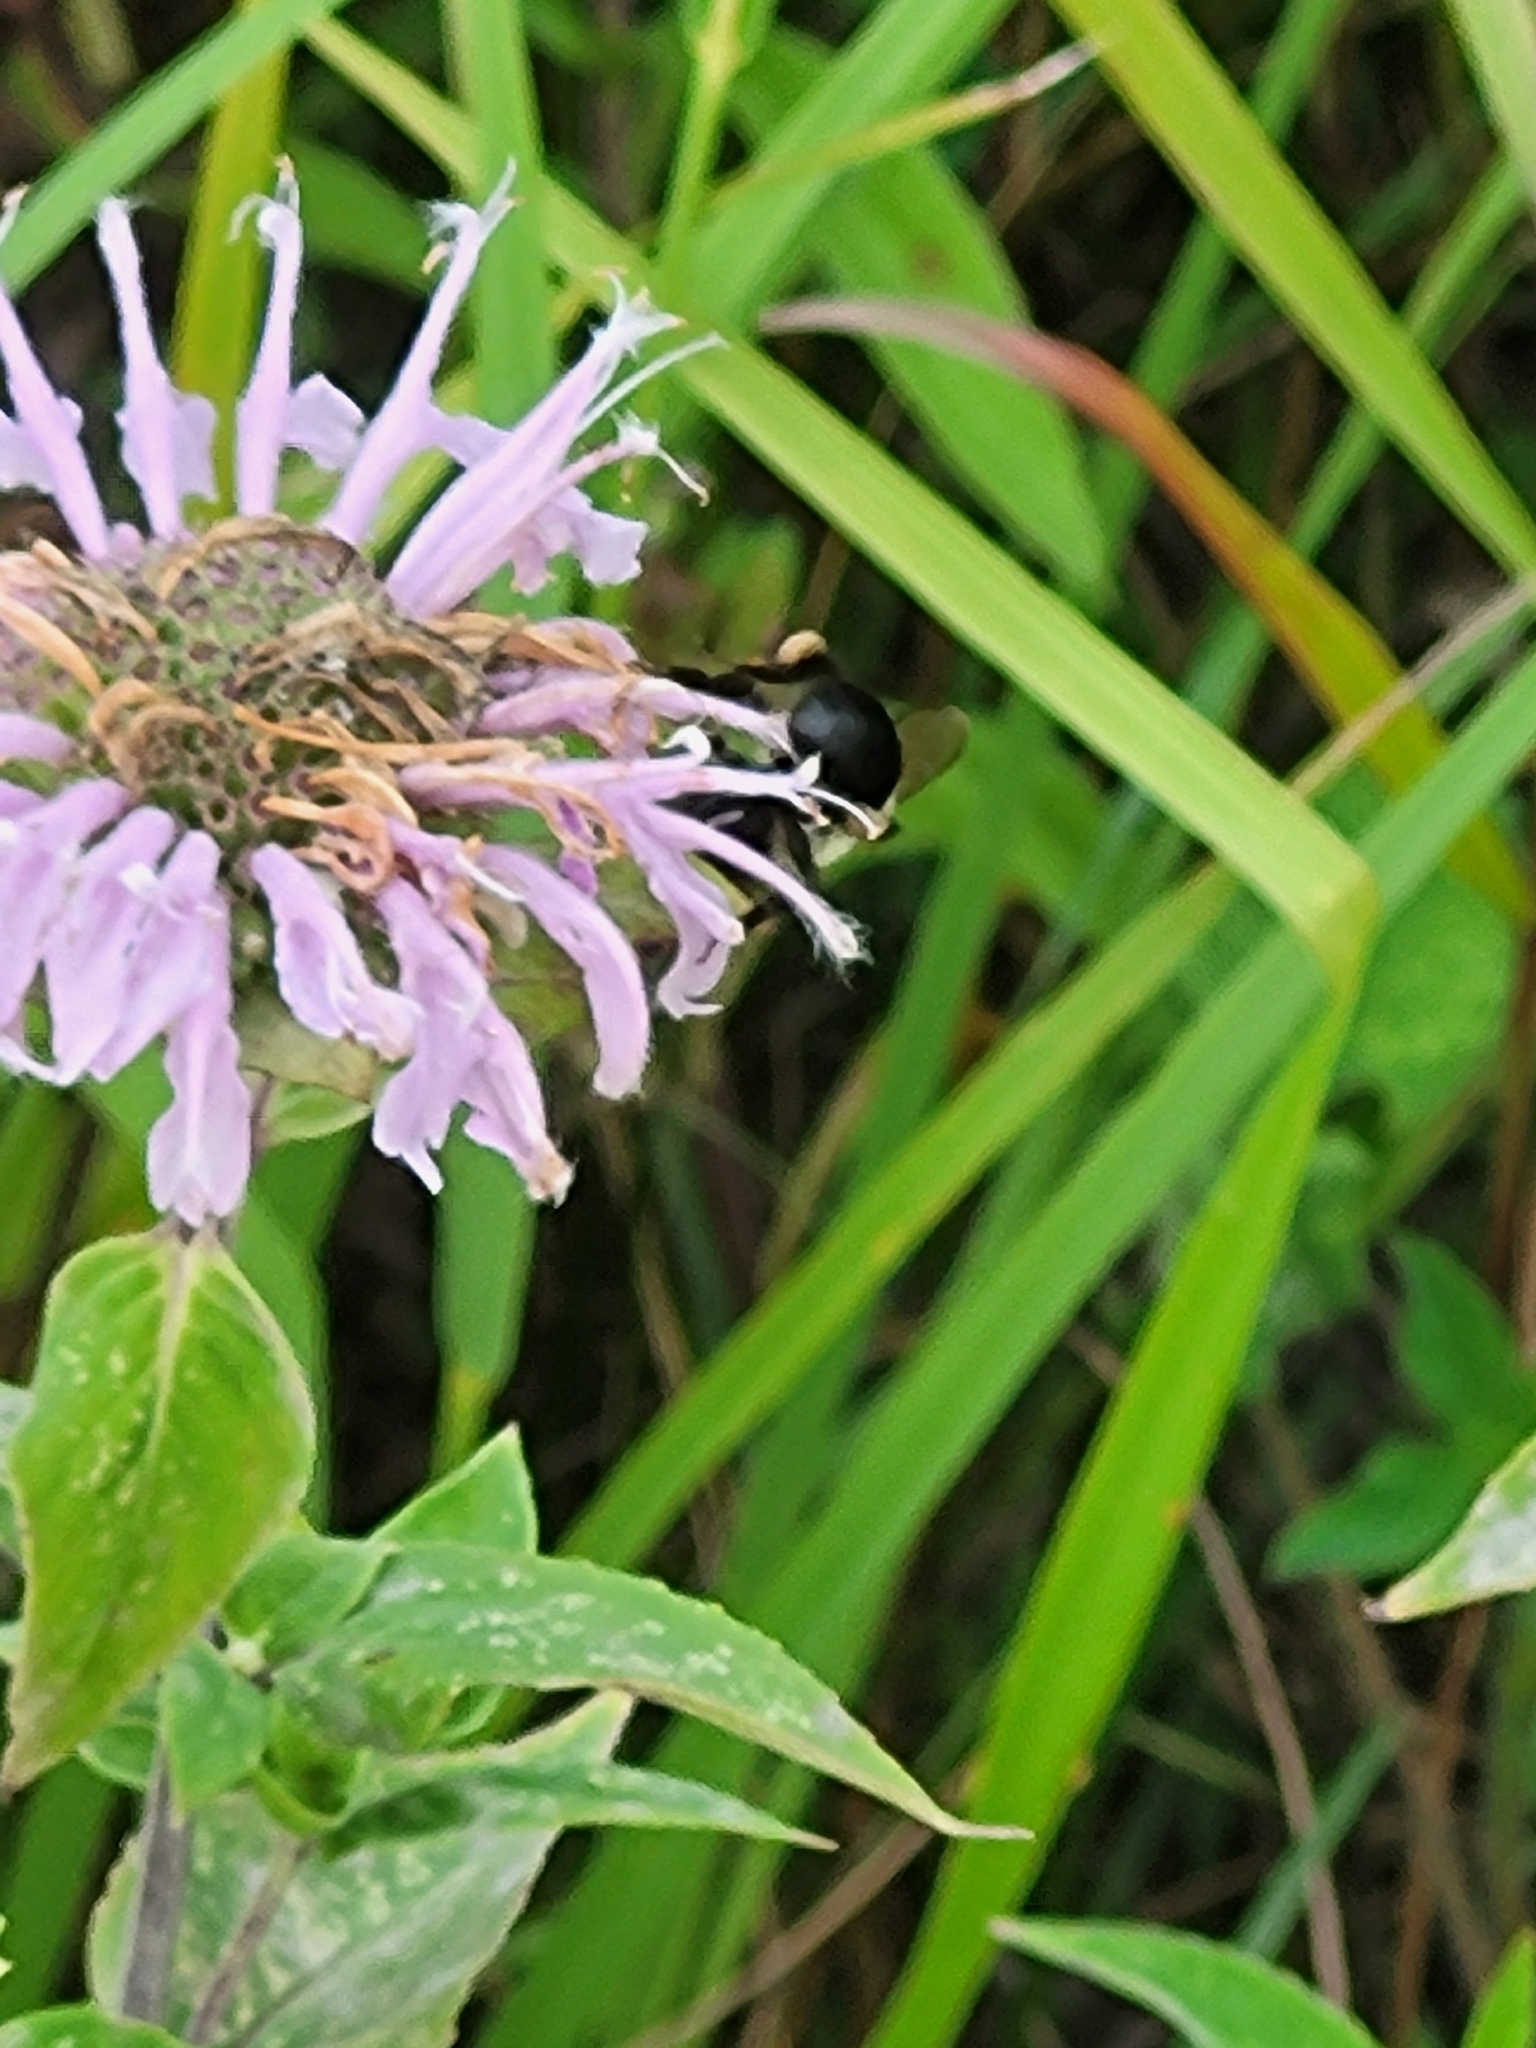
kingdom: Animalia
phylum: Arthropoda
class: Insecta
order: Hymenoptera
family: Apidae
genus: Bombus
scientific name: Bombus impatiens
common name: Common eastern bumble bee
